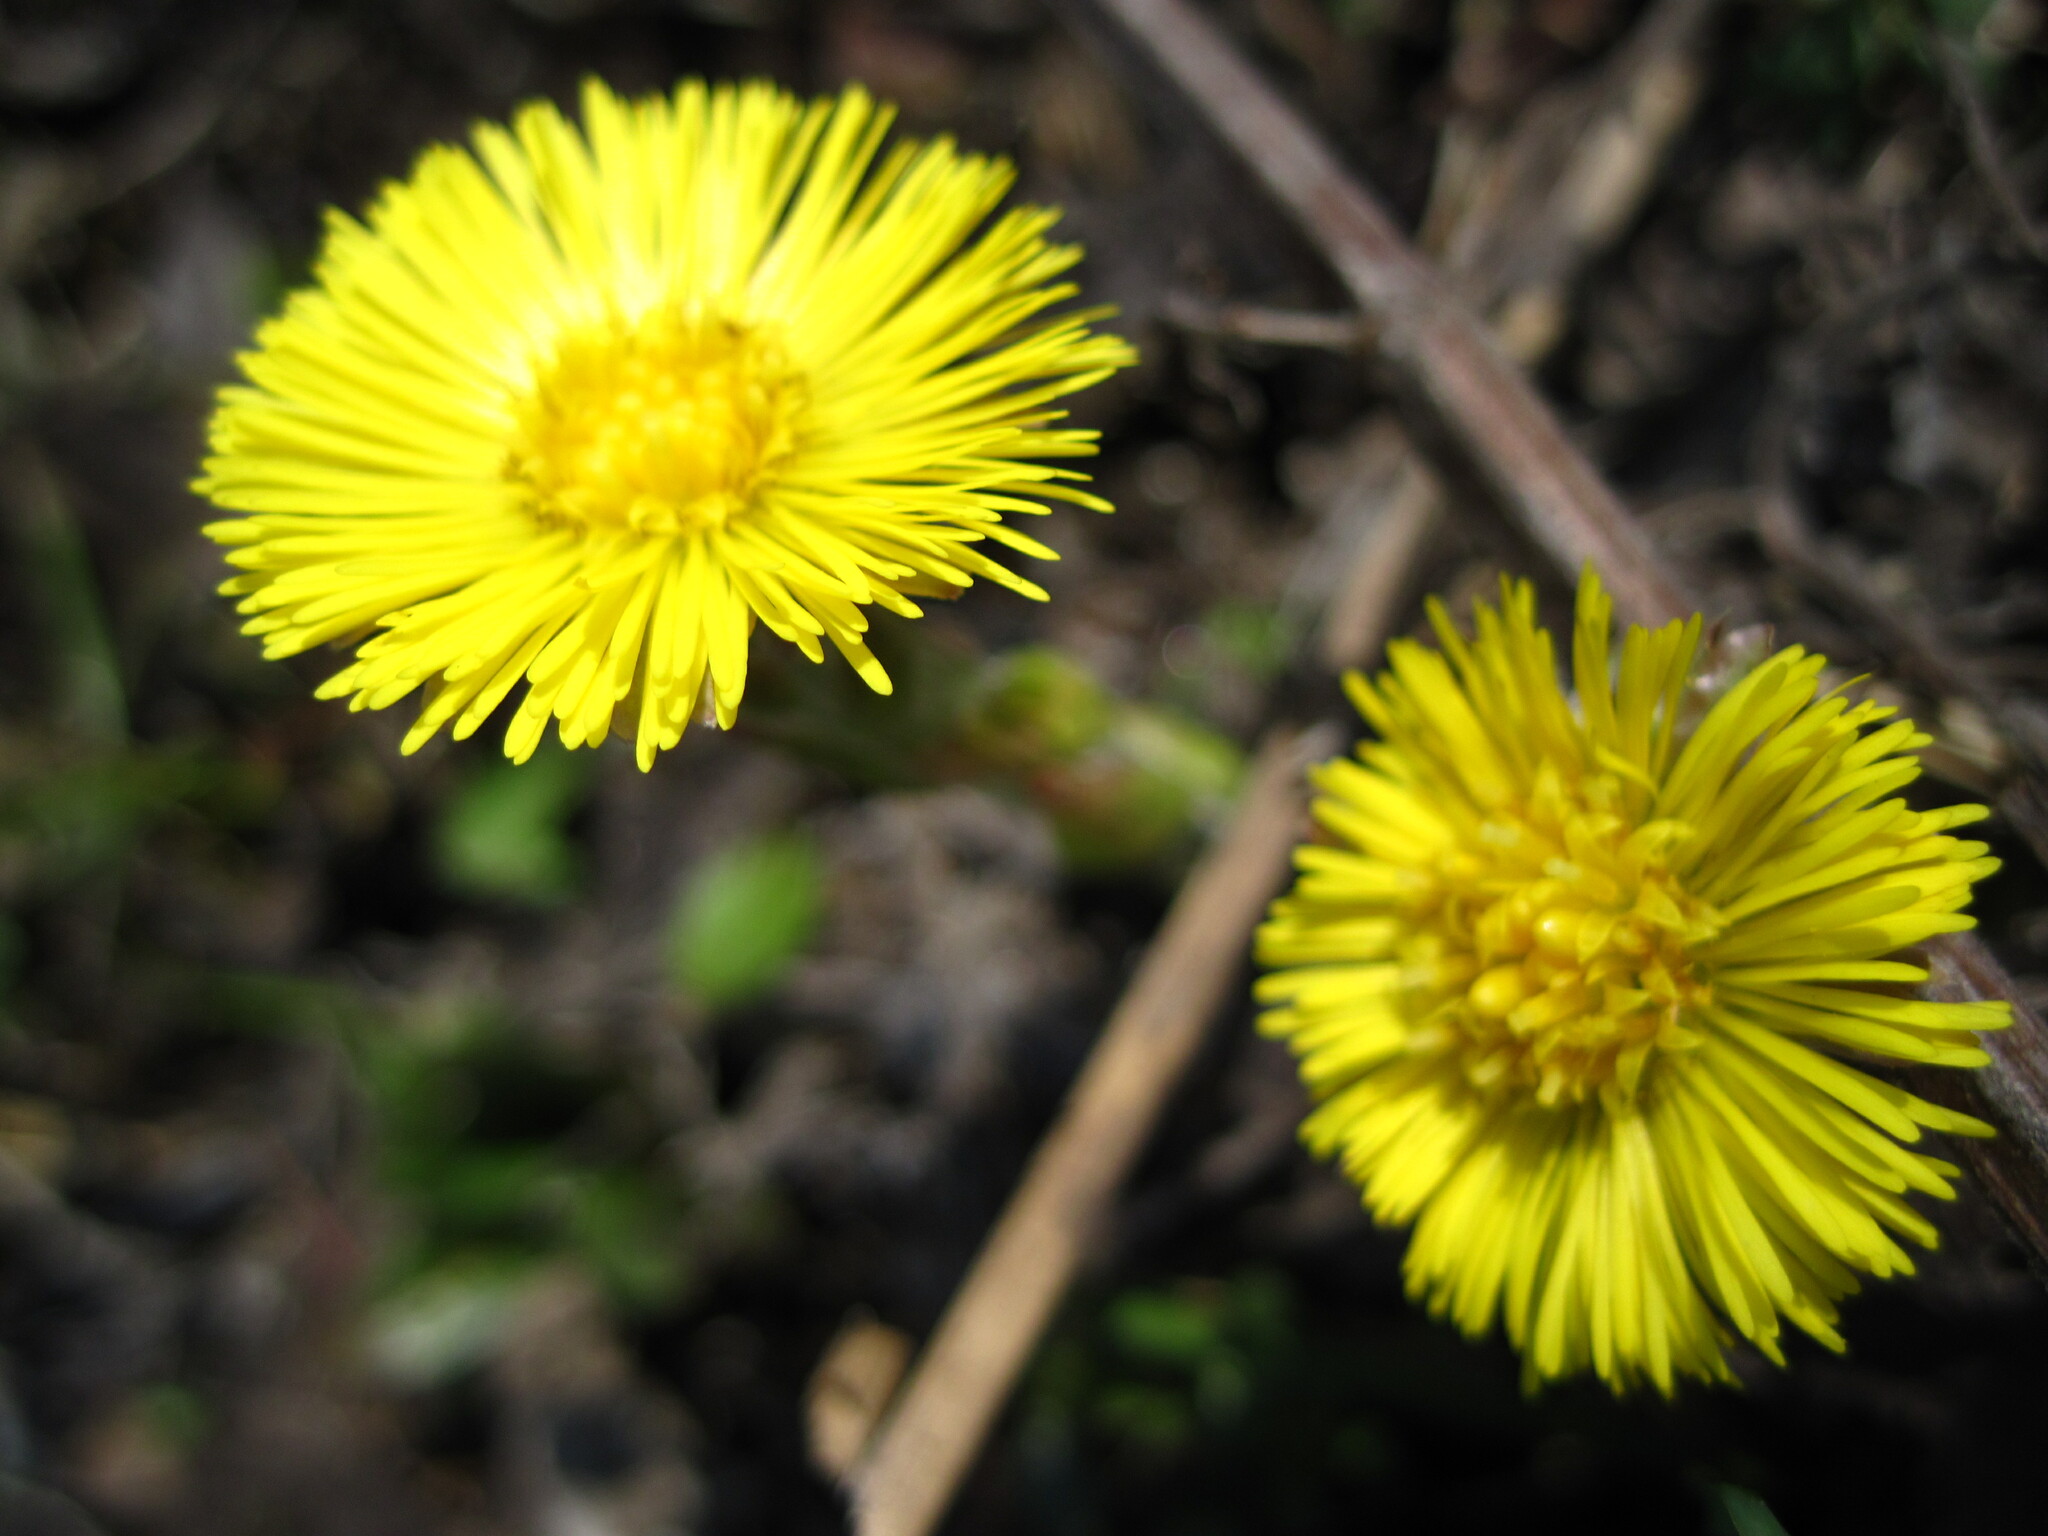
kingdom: Plantae
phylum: Tracheophyta
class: Magnoliopsida
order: Asterales
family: Asteraceae
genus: Tussilago
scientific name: Tussilago farfara
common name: Coltsfoot
